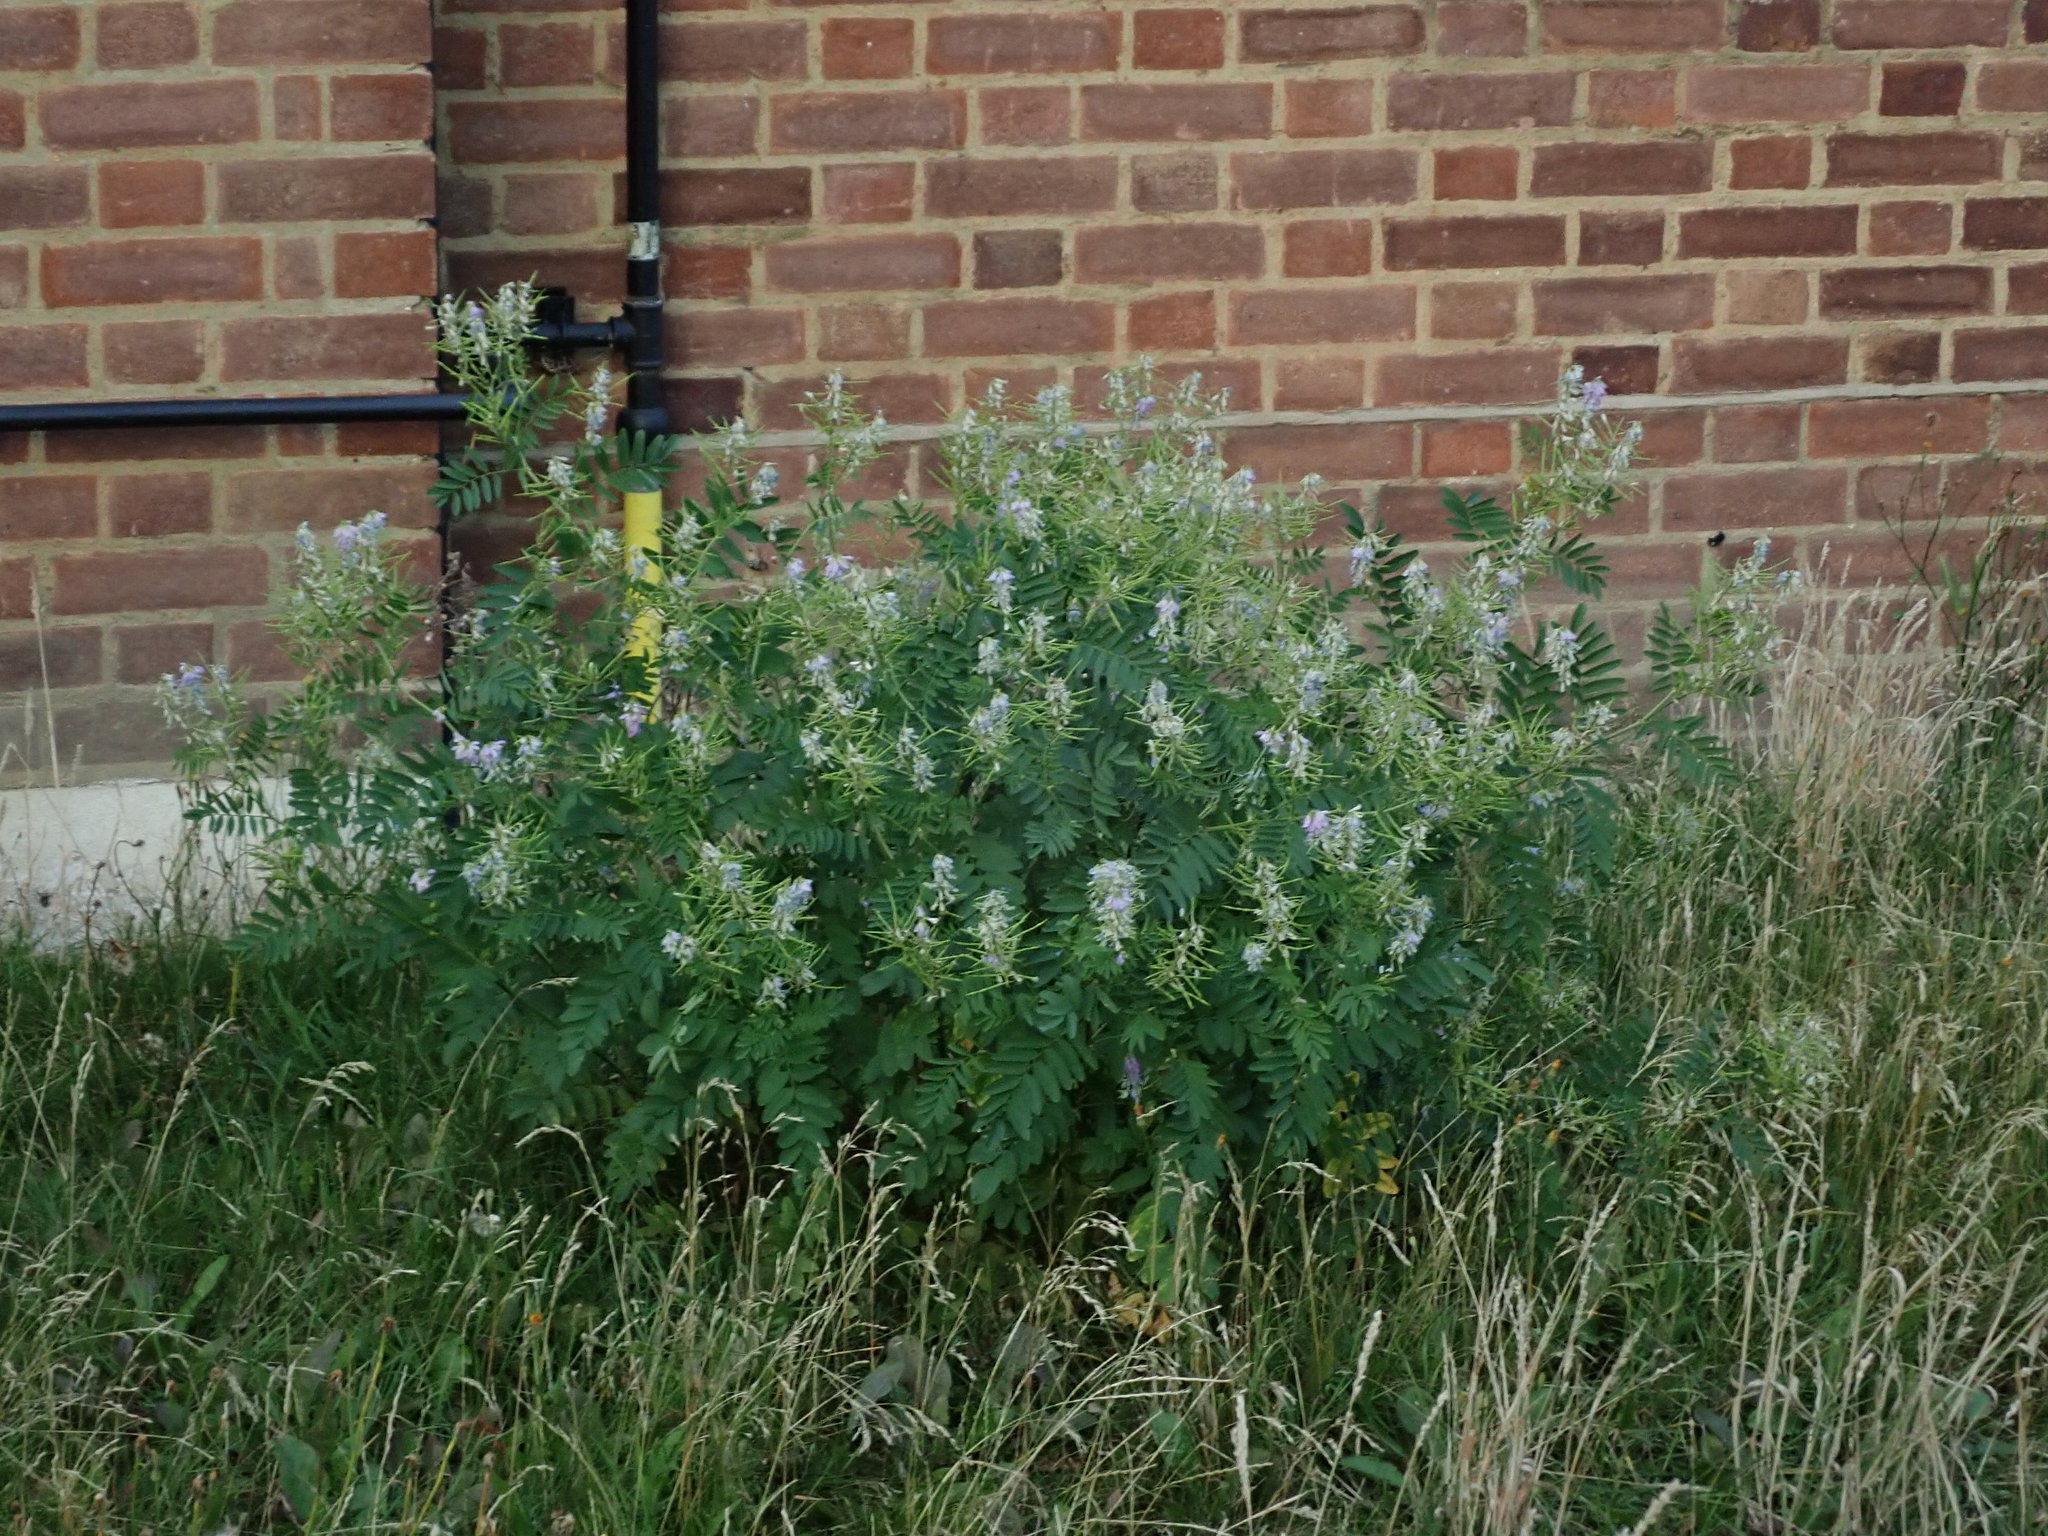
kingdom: Plantae
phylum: Tracheophyta
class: Magnoliopsida
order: Fabales
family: Fabaceae
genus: Galega
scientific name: Galega officinalis
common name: Goat's-rue
